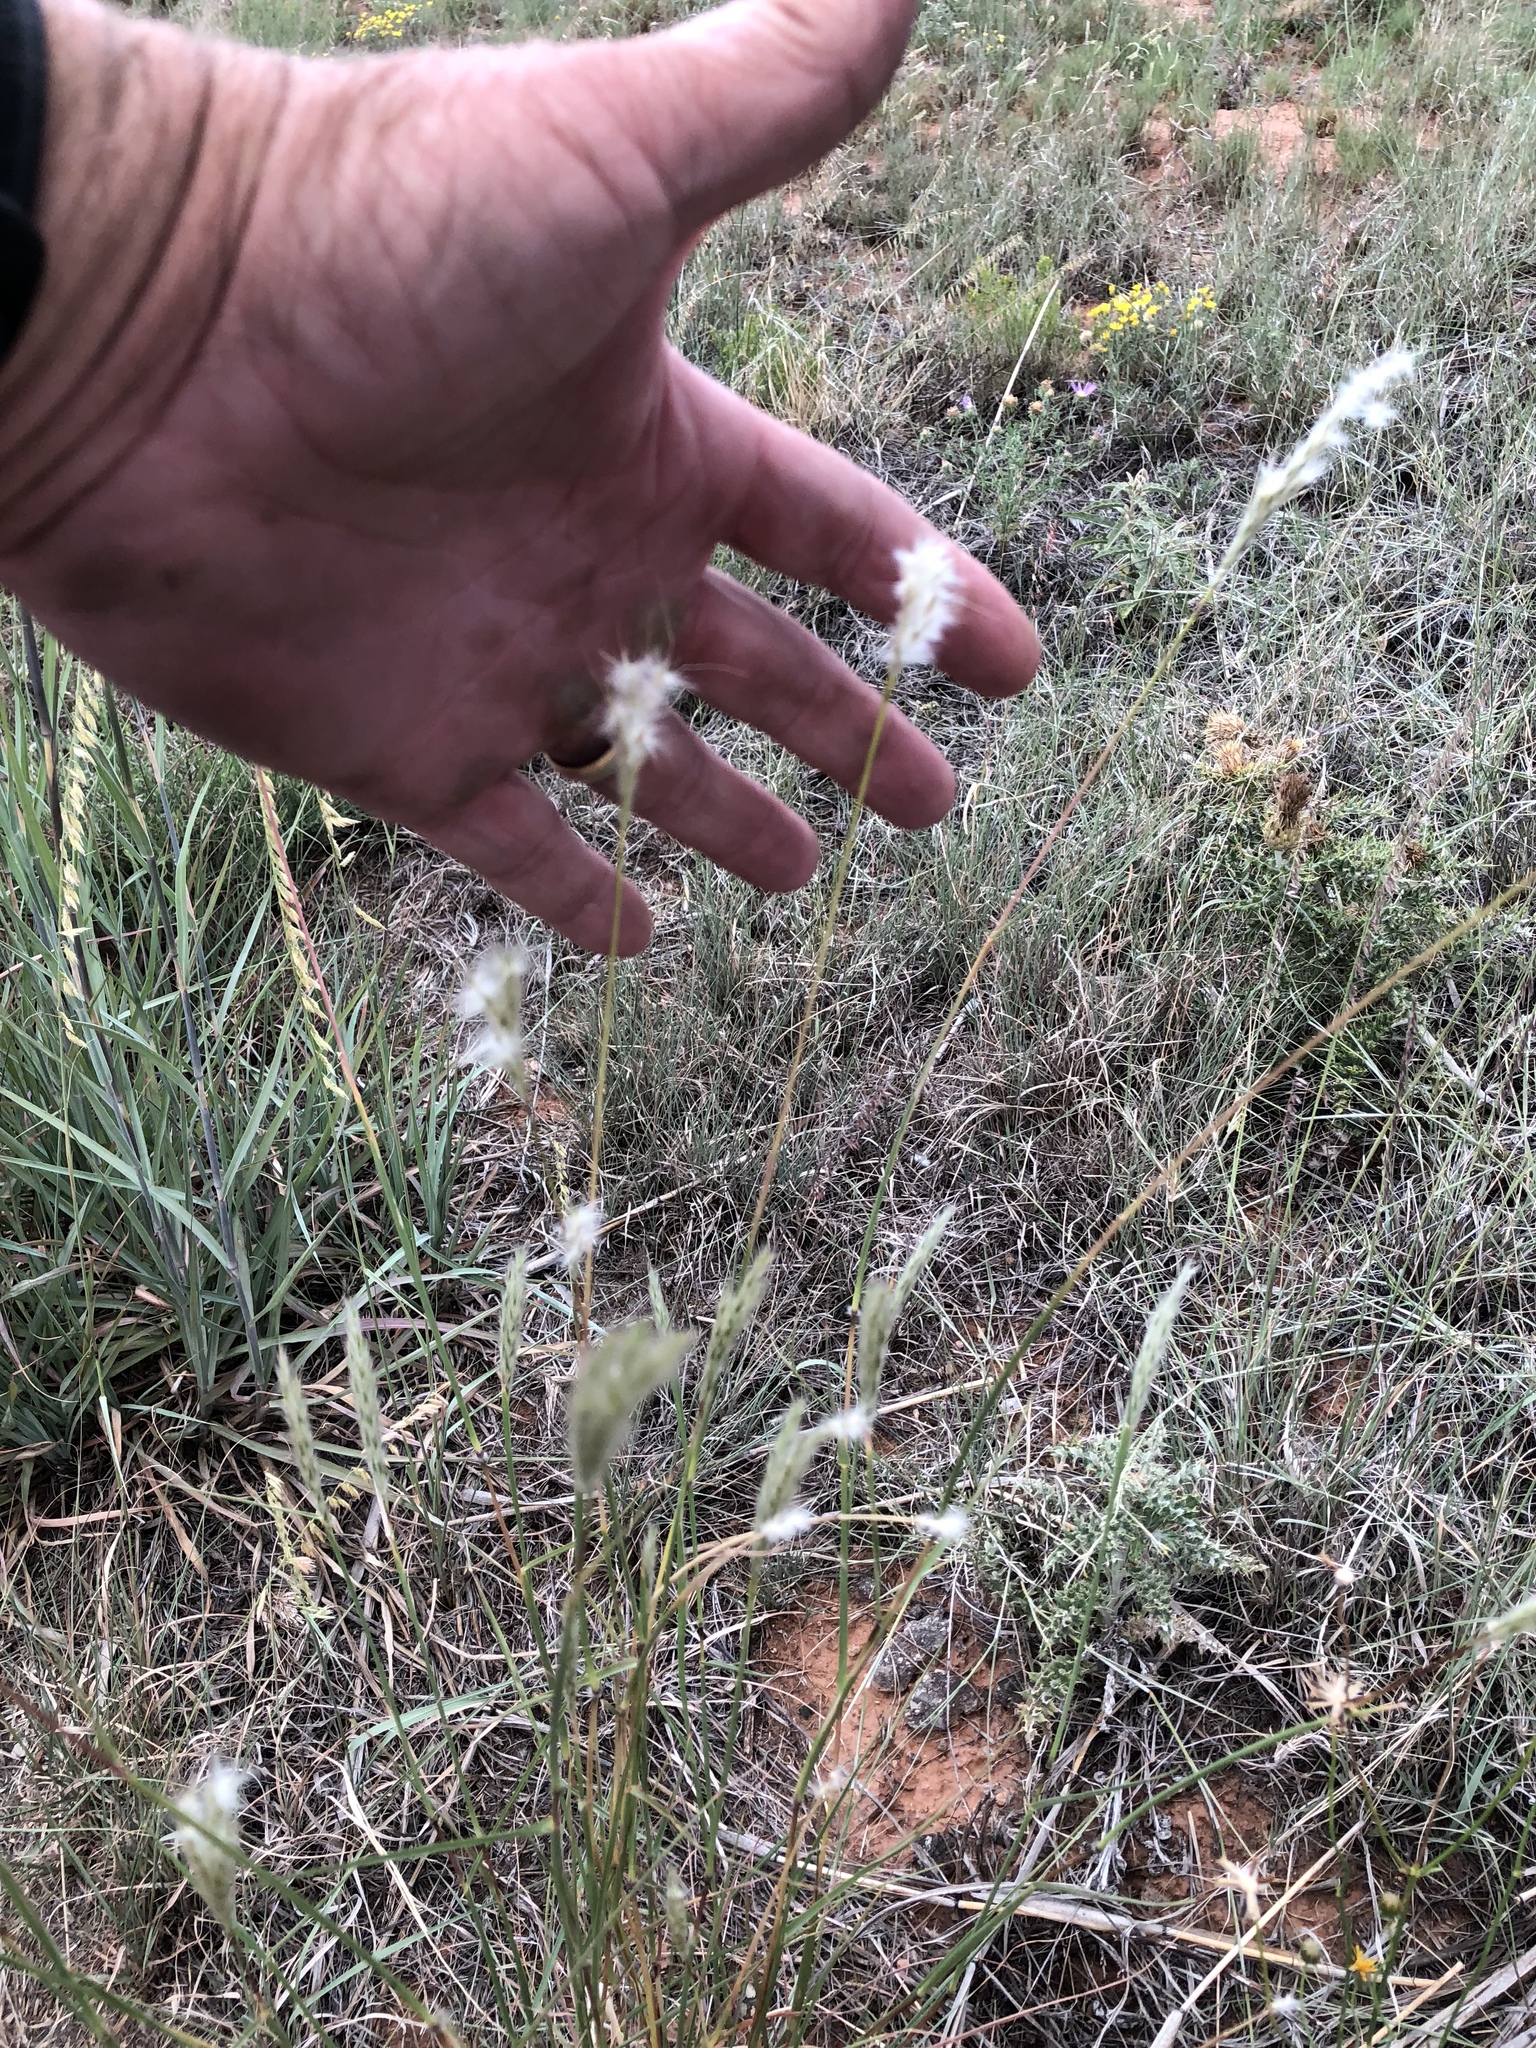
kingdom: Plantae
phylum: Tracheophyta
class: Liliopsida
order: Poales
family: Poaceae
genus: Bothriochloa
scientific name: Bothriochloa springfieldii
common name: Springfield bluestem
